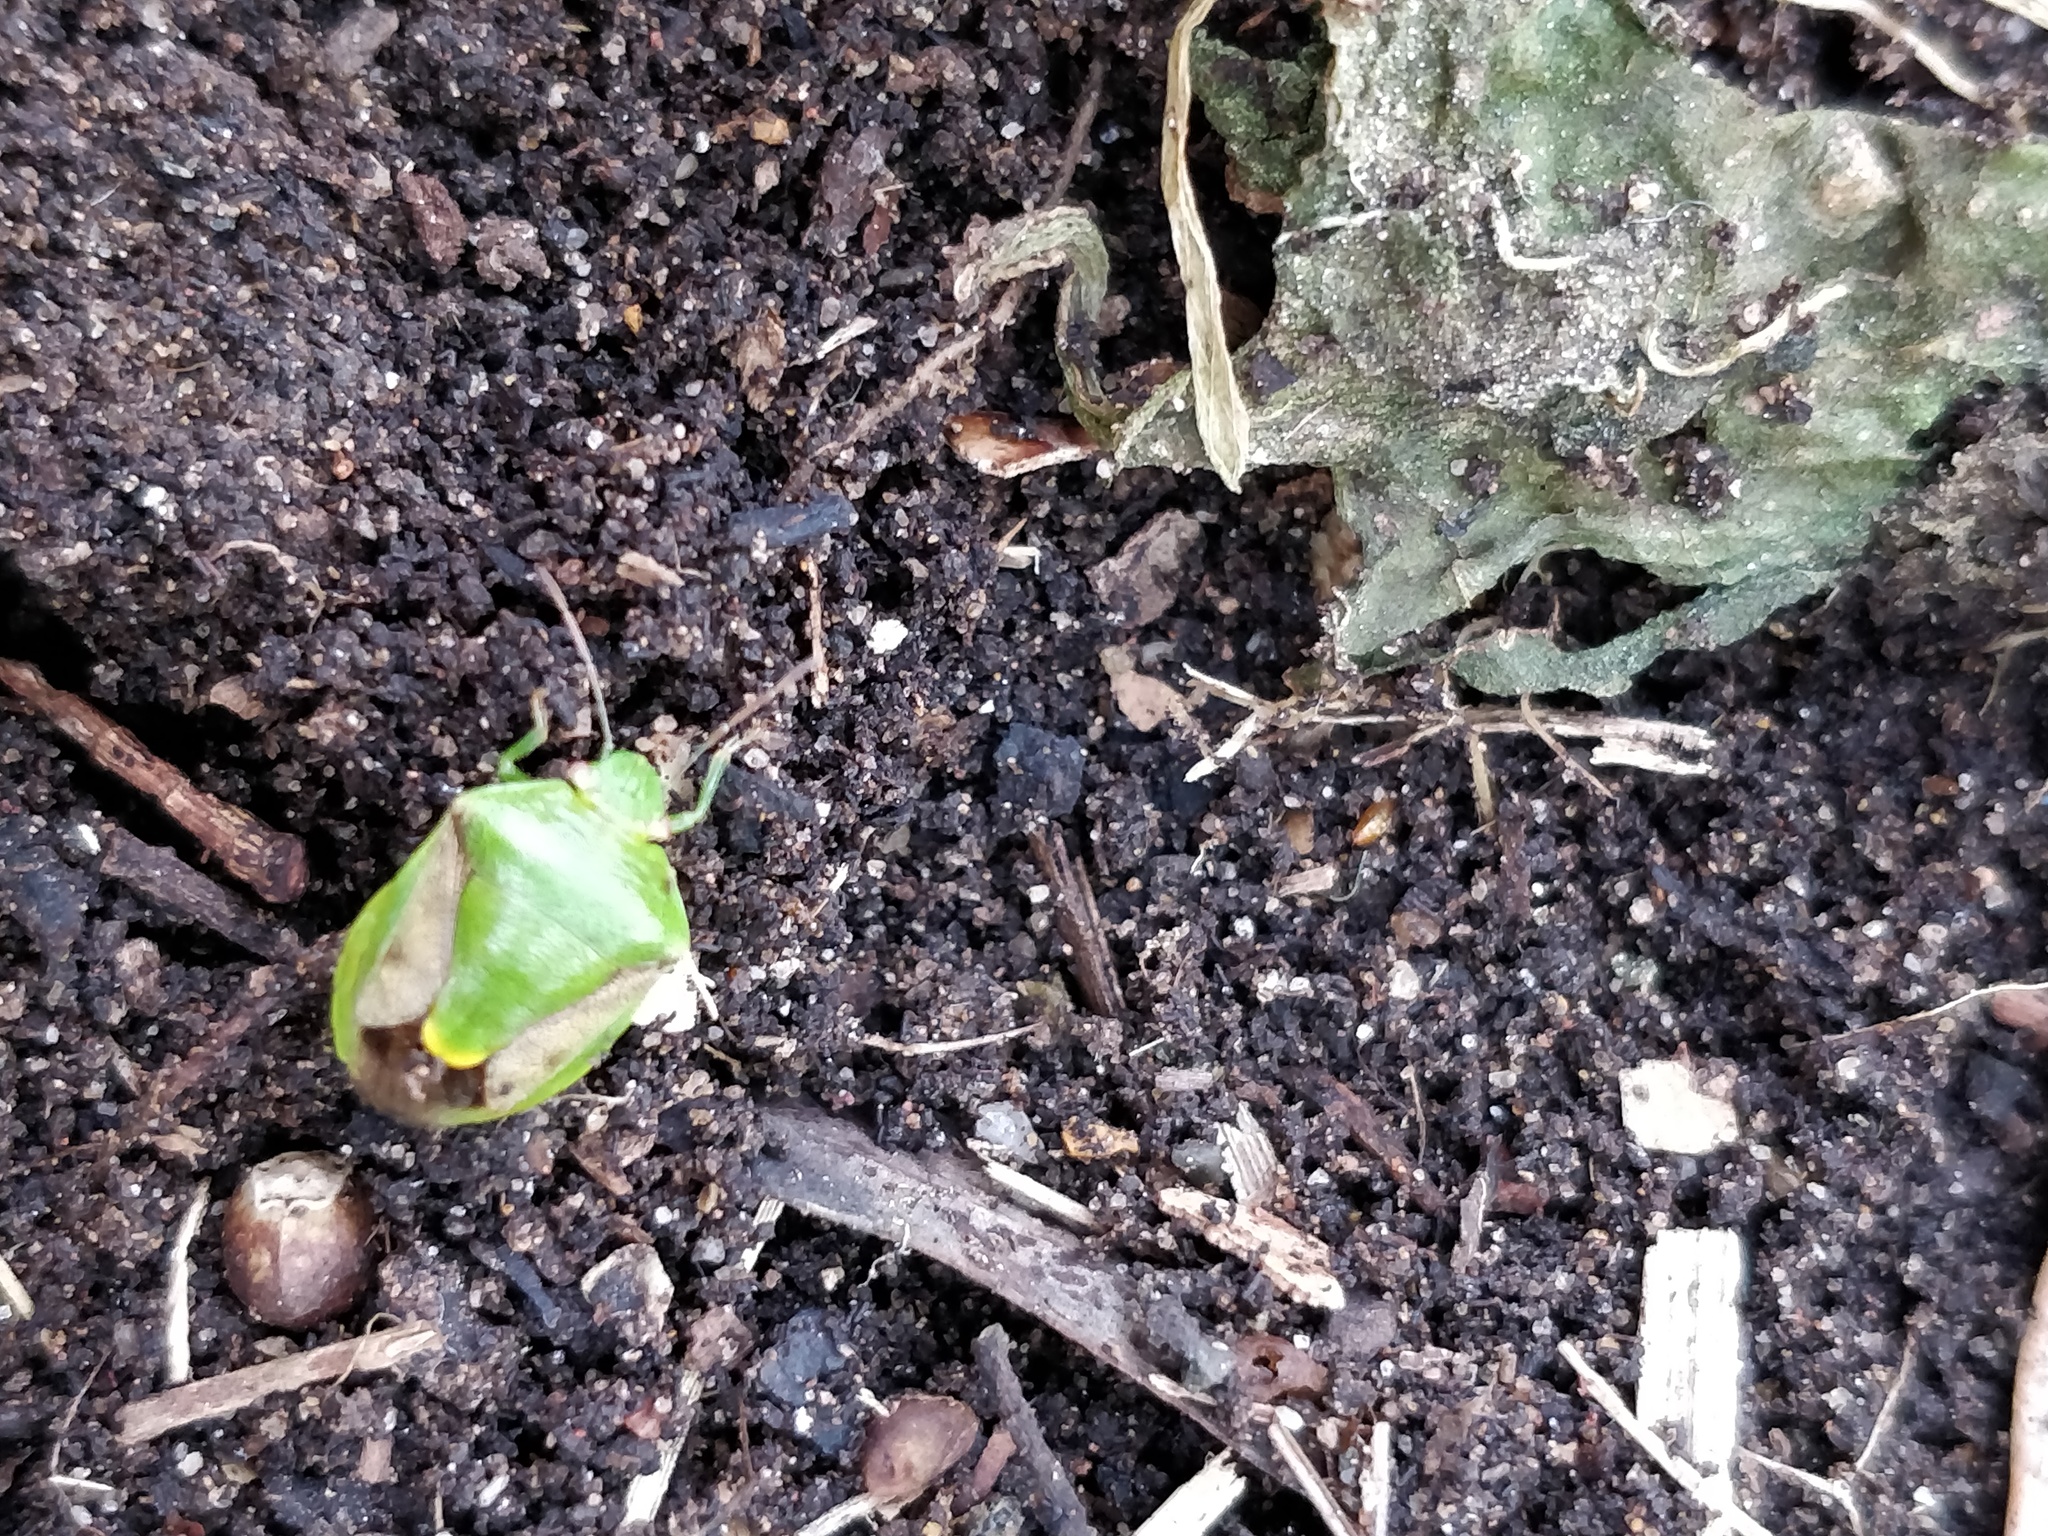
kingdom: Animalia
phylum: Arthropoda
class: Insecta
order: Hemiptera
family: Pentatomidae
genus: Plautia
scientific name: Plautia affinis
